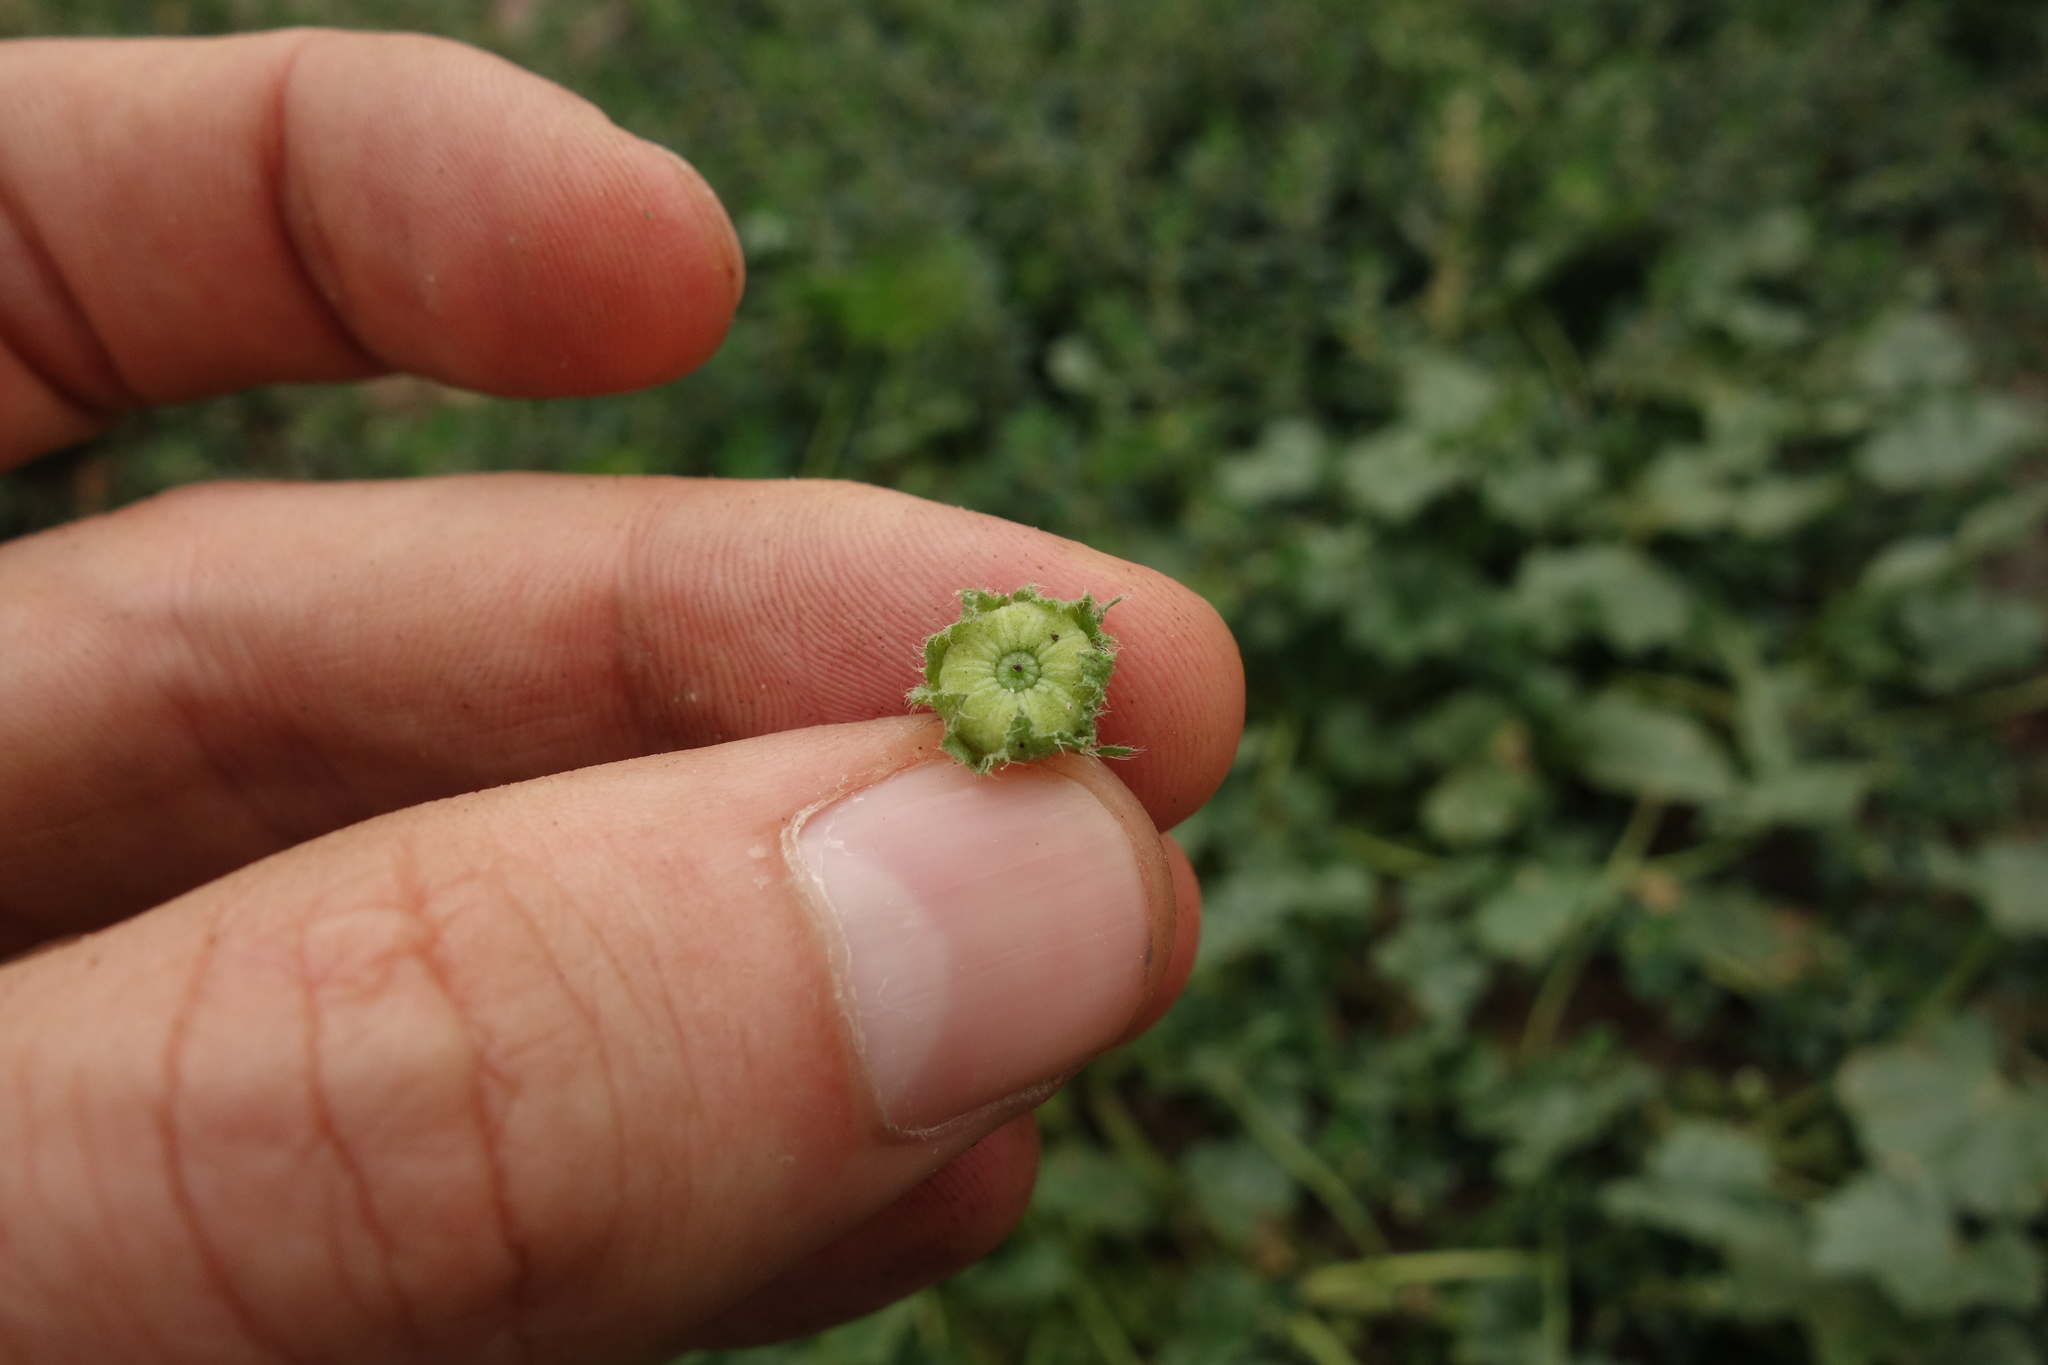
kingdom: Plantae
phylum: Tracheophyta
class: Magnoliopsida
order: Malvales
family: Malvaceae
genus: Malva
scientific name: Malva pusilla
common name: Small mallow
